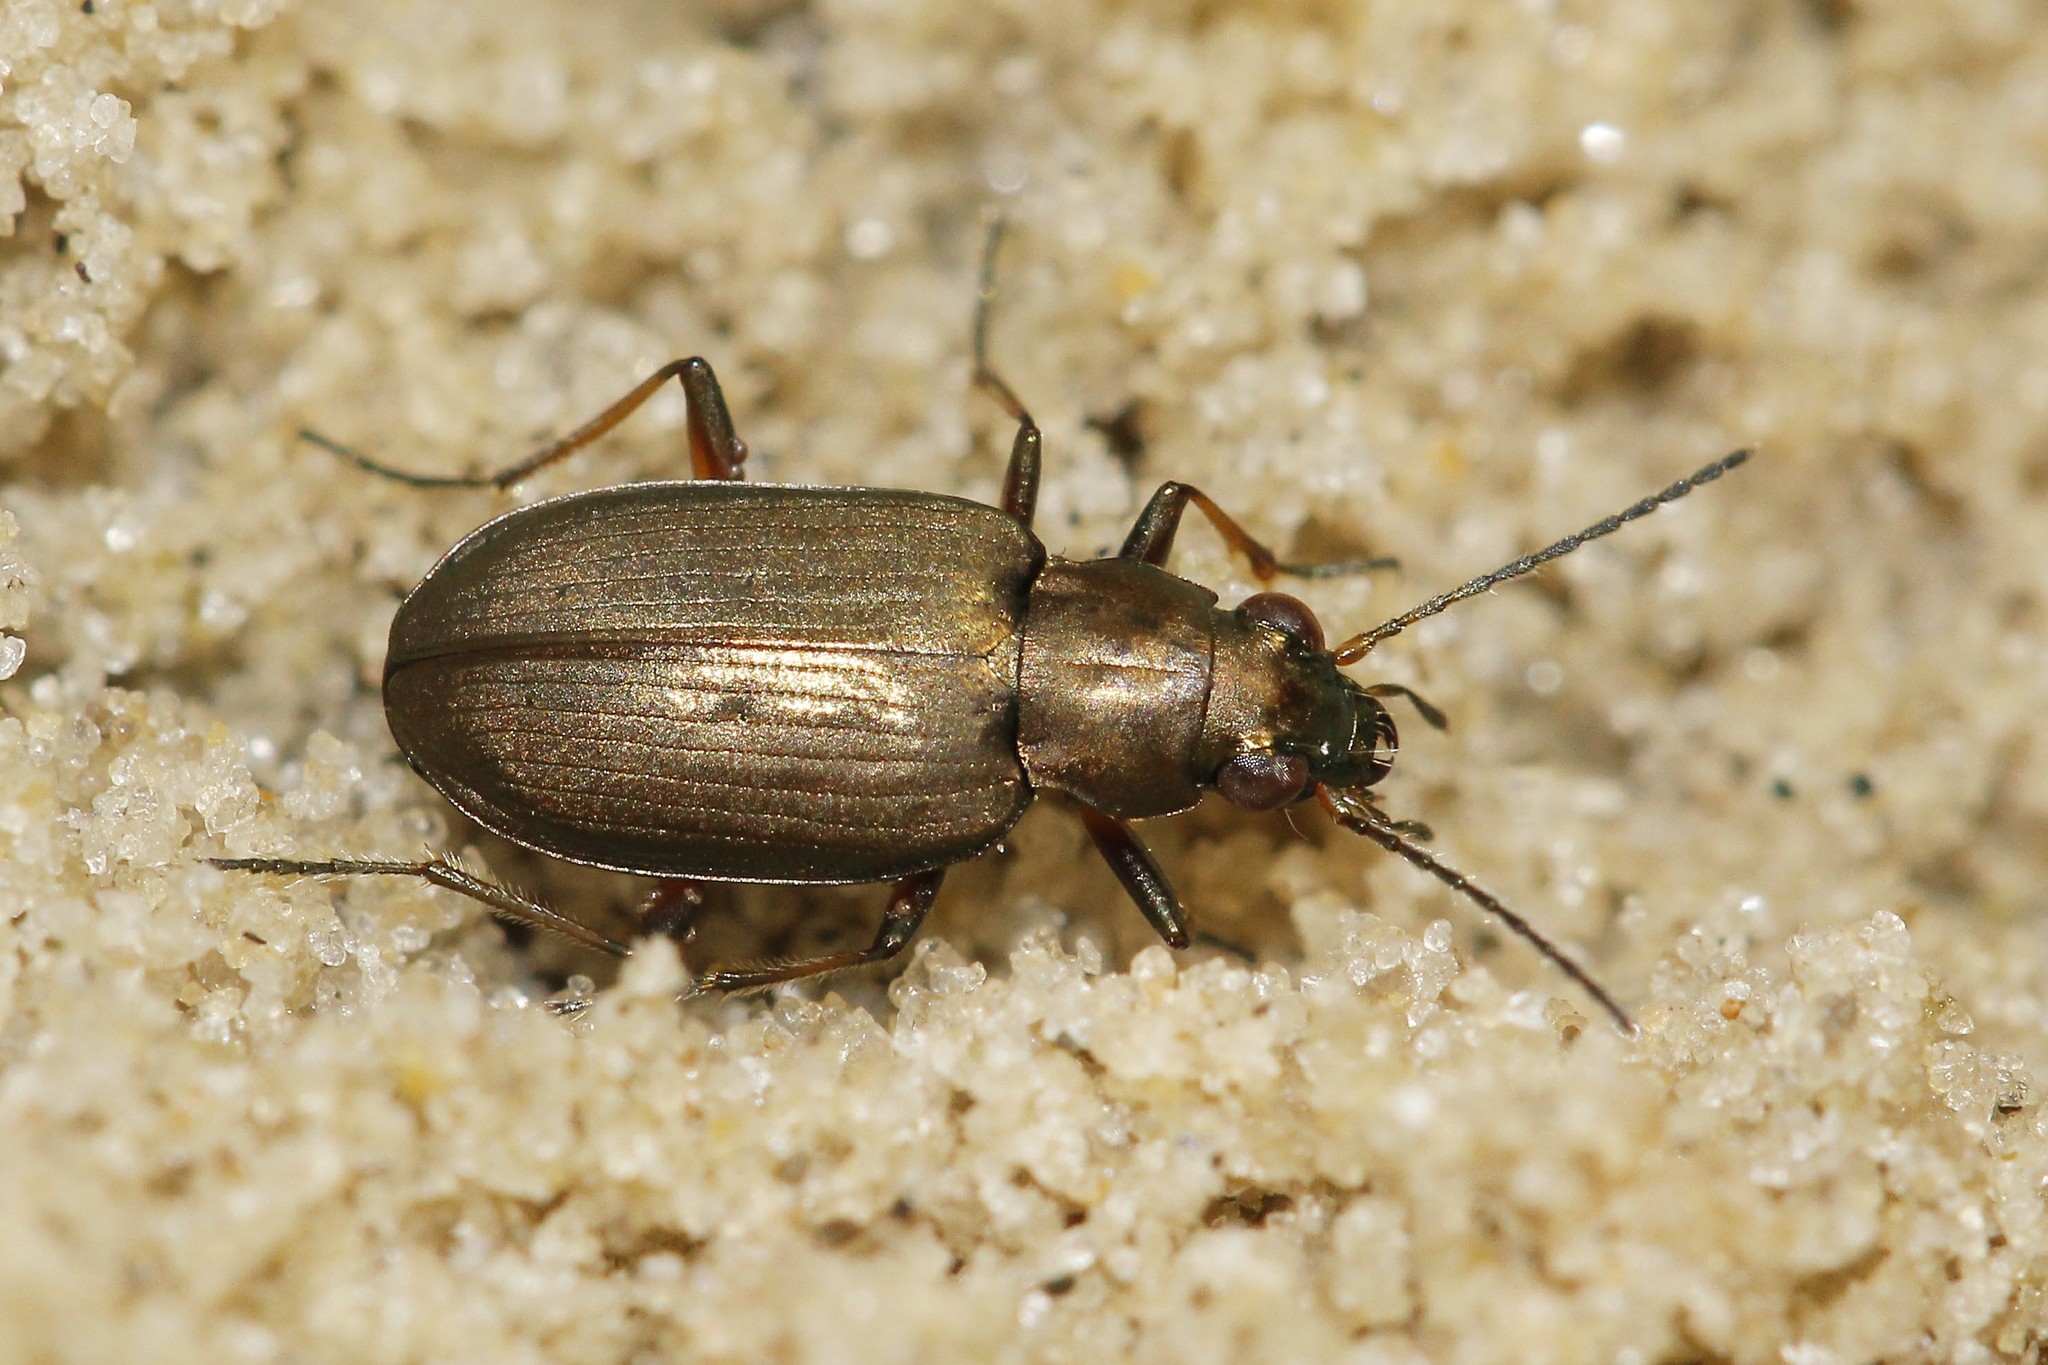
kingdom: Animalia
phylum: Arthropoda
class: Insecta
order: Coleoptera
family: Carabidae
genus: Bembidion
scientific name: Bembidion striatum
